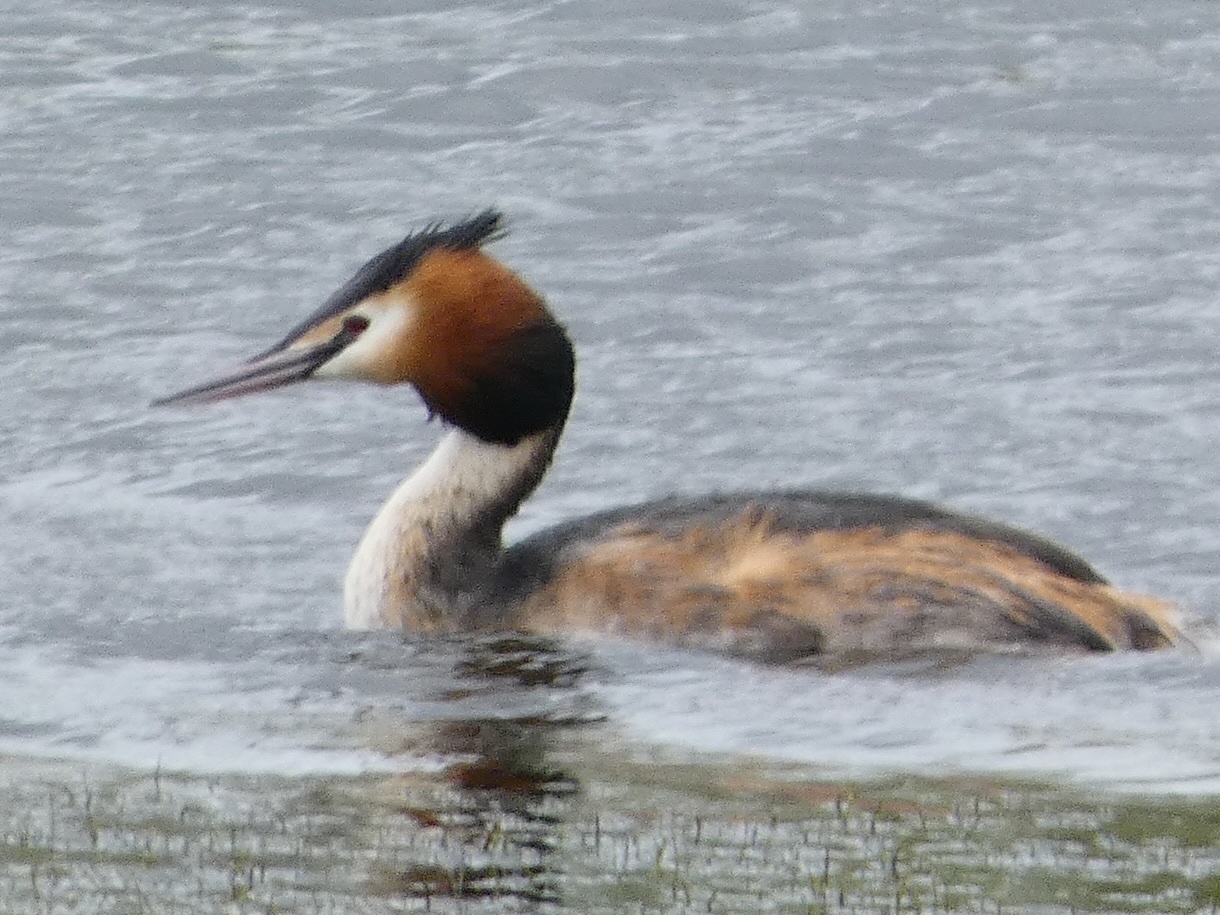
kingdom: Animalia
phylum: Chordata
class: Aves
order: Podicipediformes
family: Podicipedidae
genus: Podiceps
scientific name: Podiceps cristatus
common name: Great crested grebe
